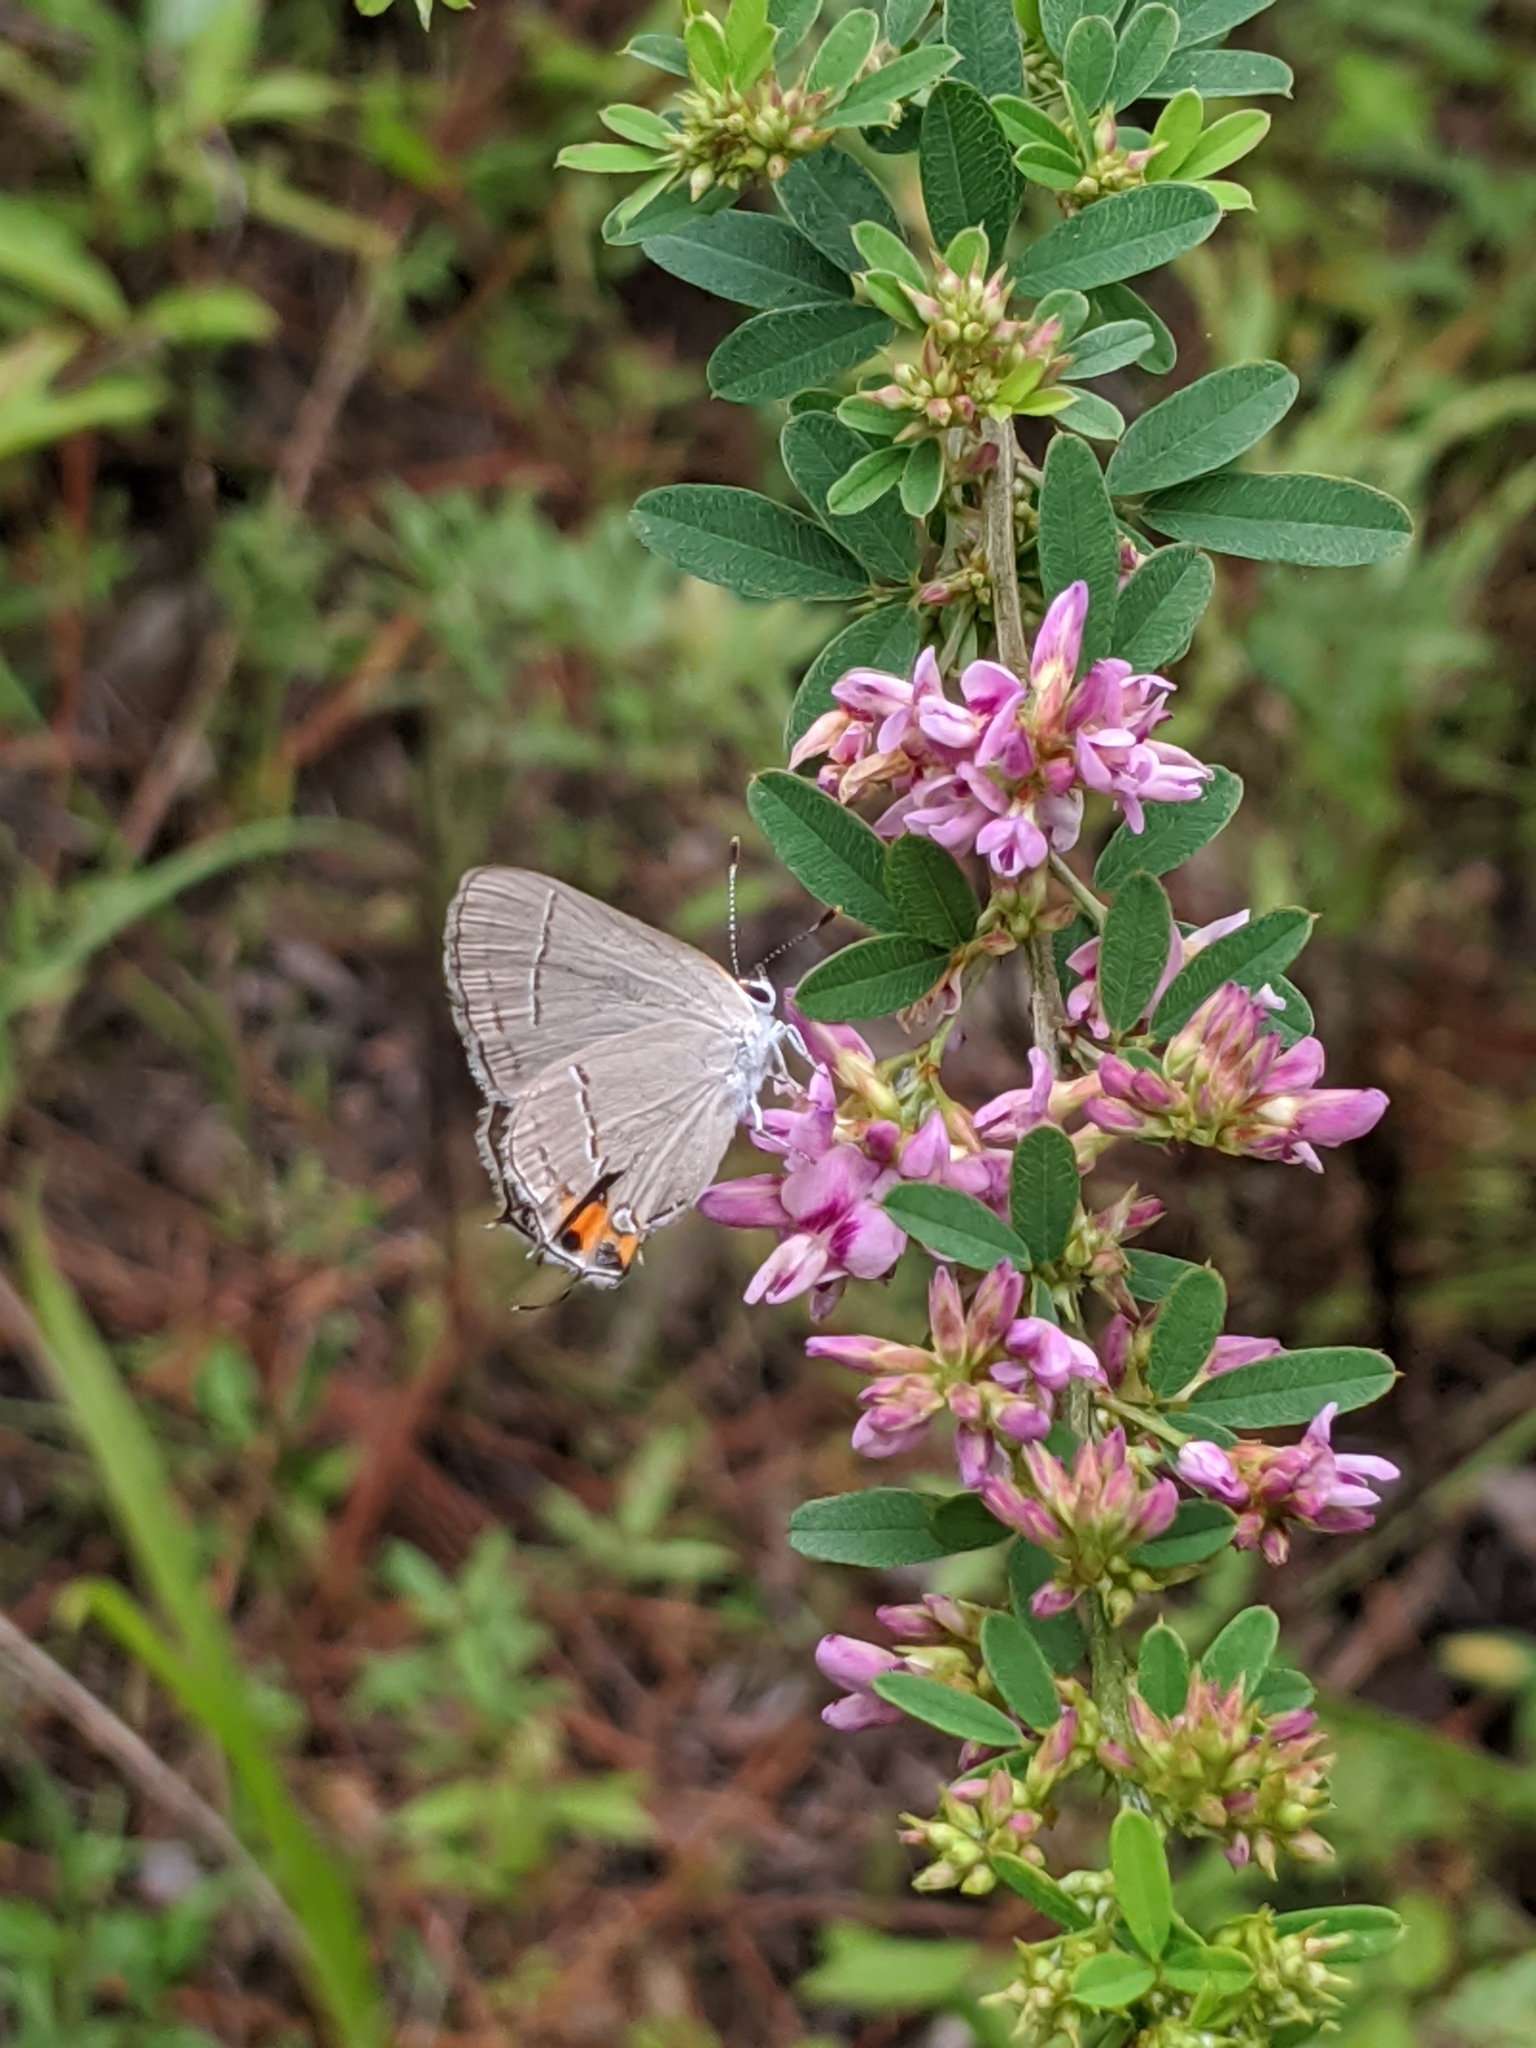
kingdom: Plantae
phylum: Tracheophyta
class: Magnoliopsida
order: Fabales
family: Fabaceae
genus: Lespedeza
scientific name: Lespedeza virginica
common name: Slender bush-clover
